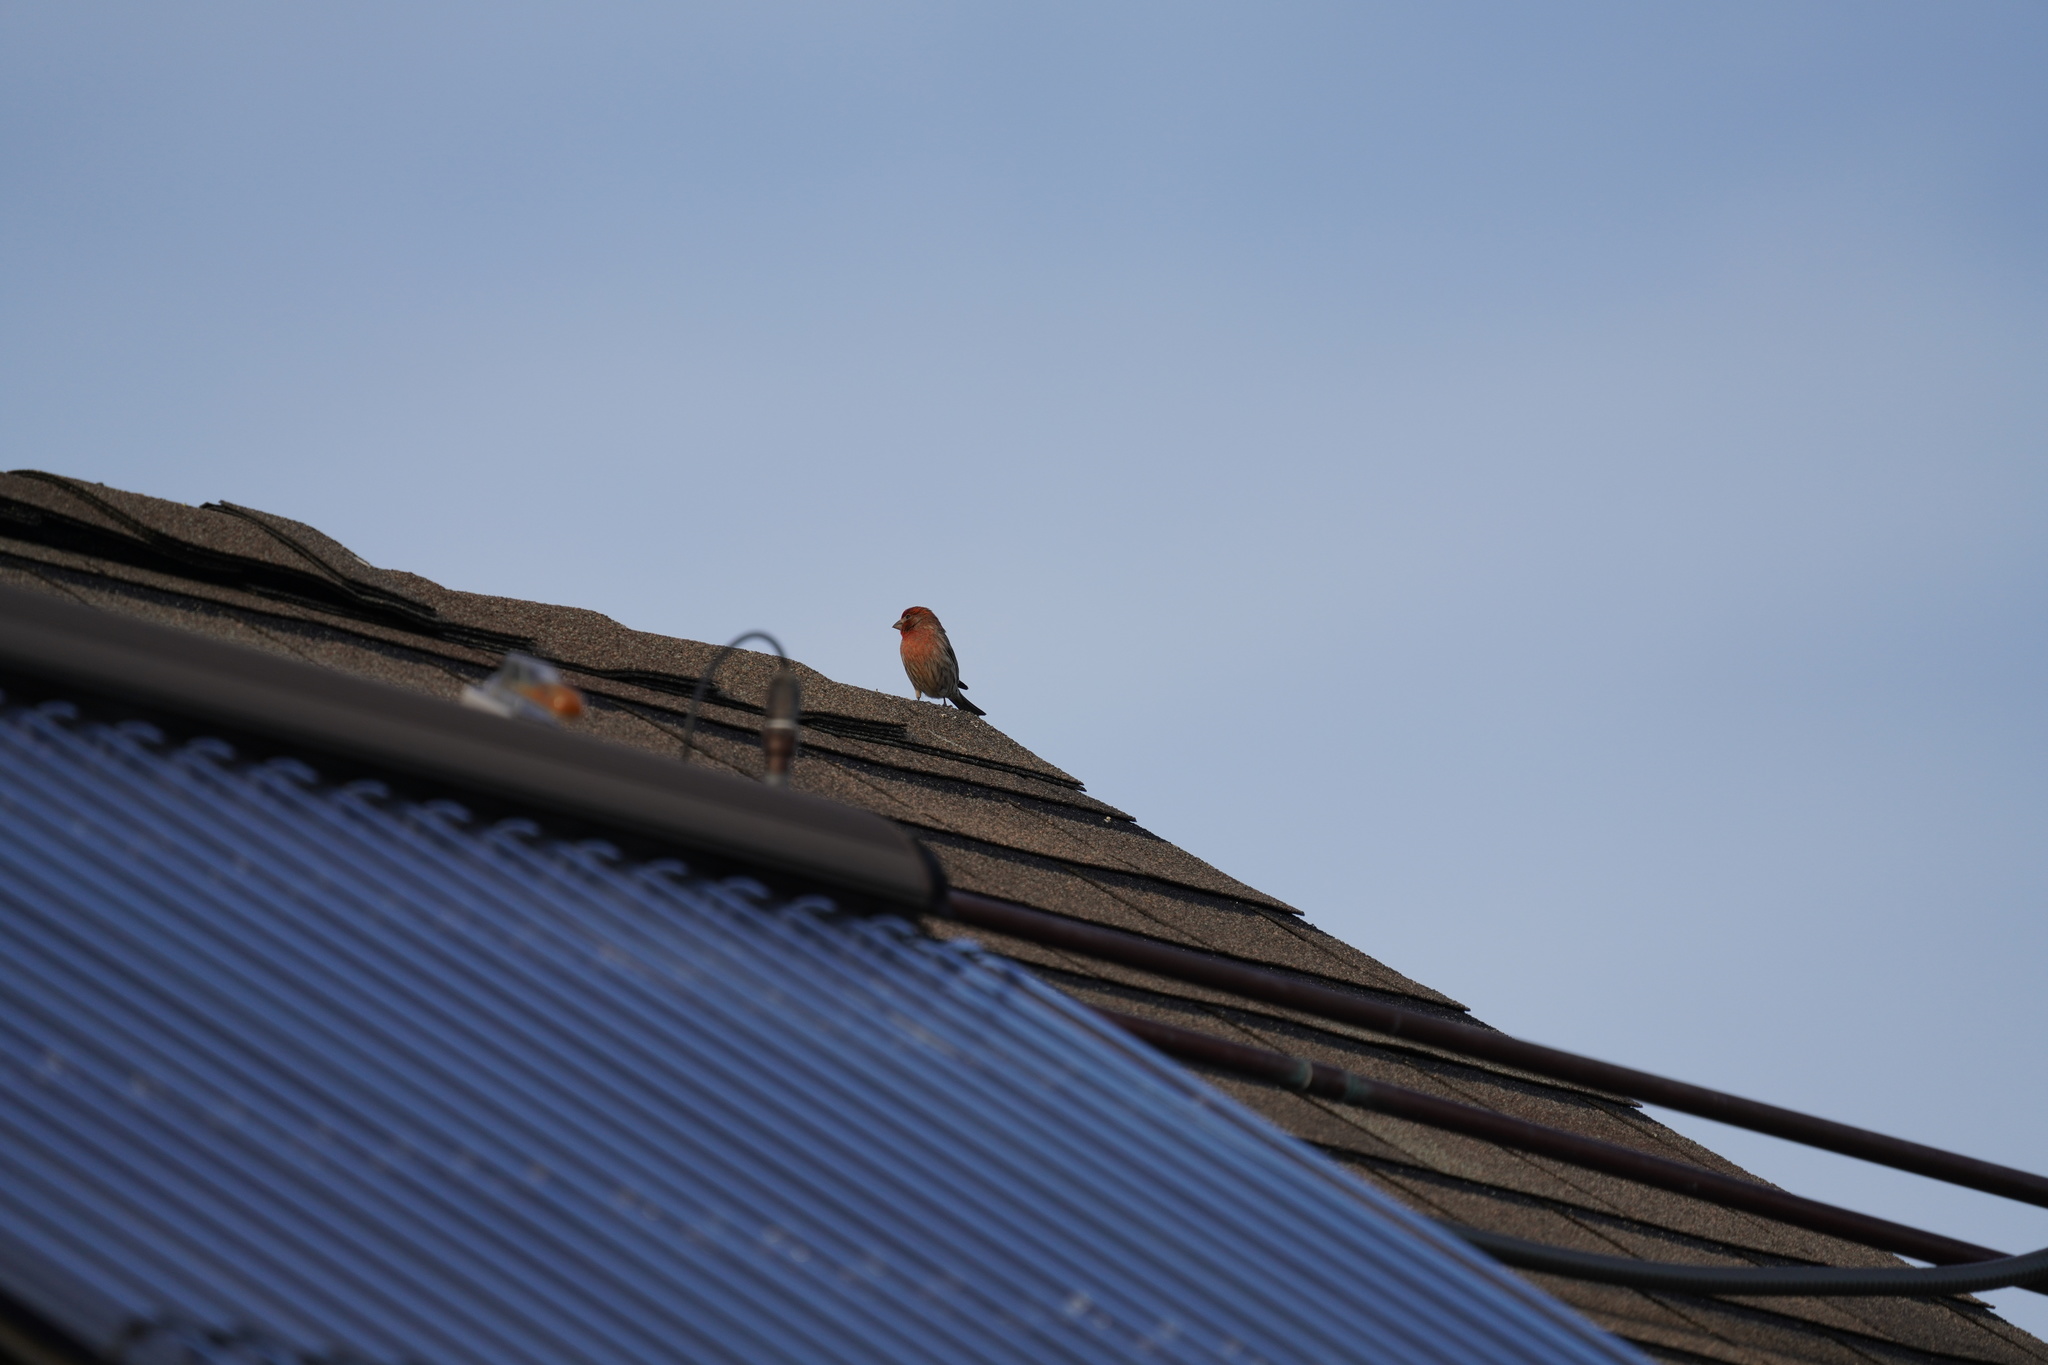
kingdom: Animalia
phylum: Chordata
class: Aves
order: Passeriformes
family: Fringillidae
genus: Haemorhous
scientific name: Haemorhous mexicanus
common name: House finch
